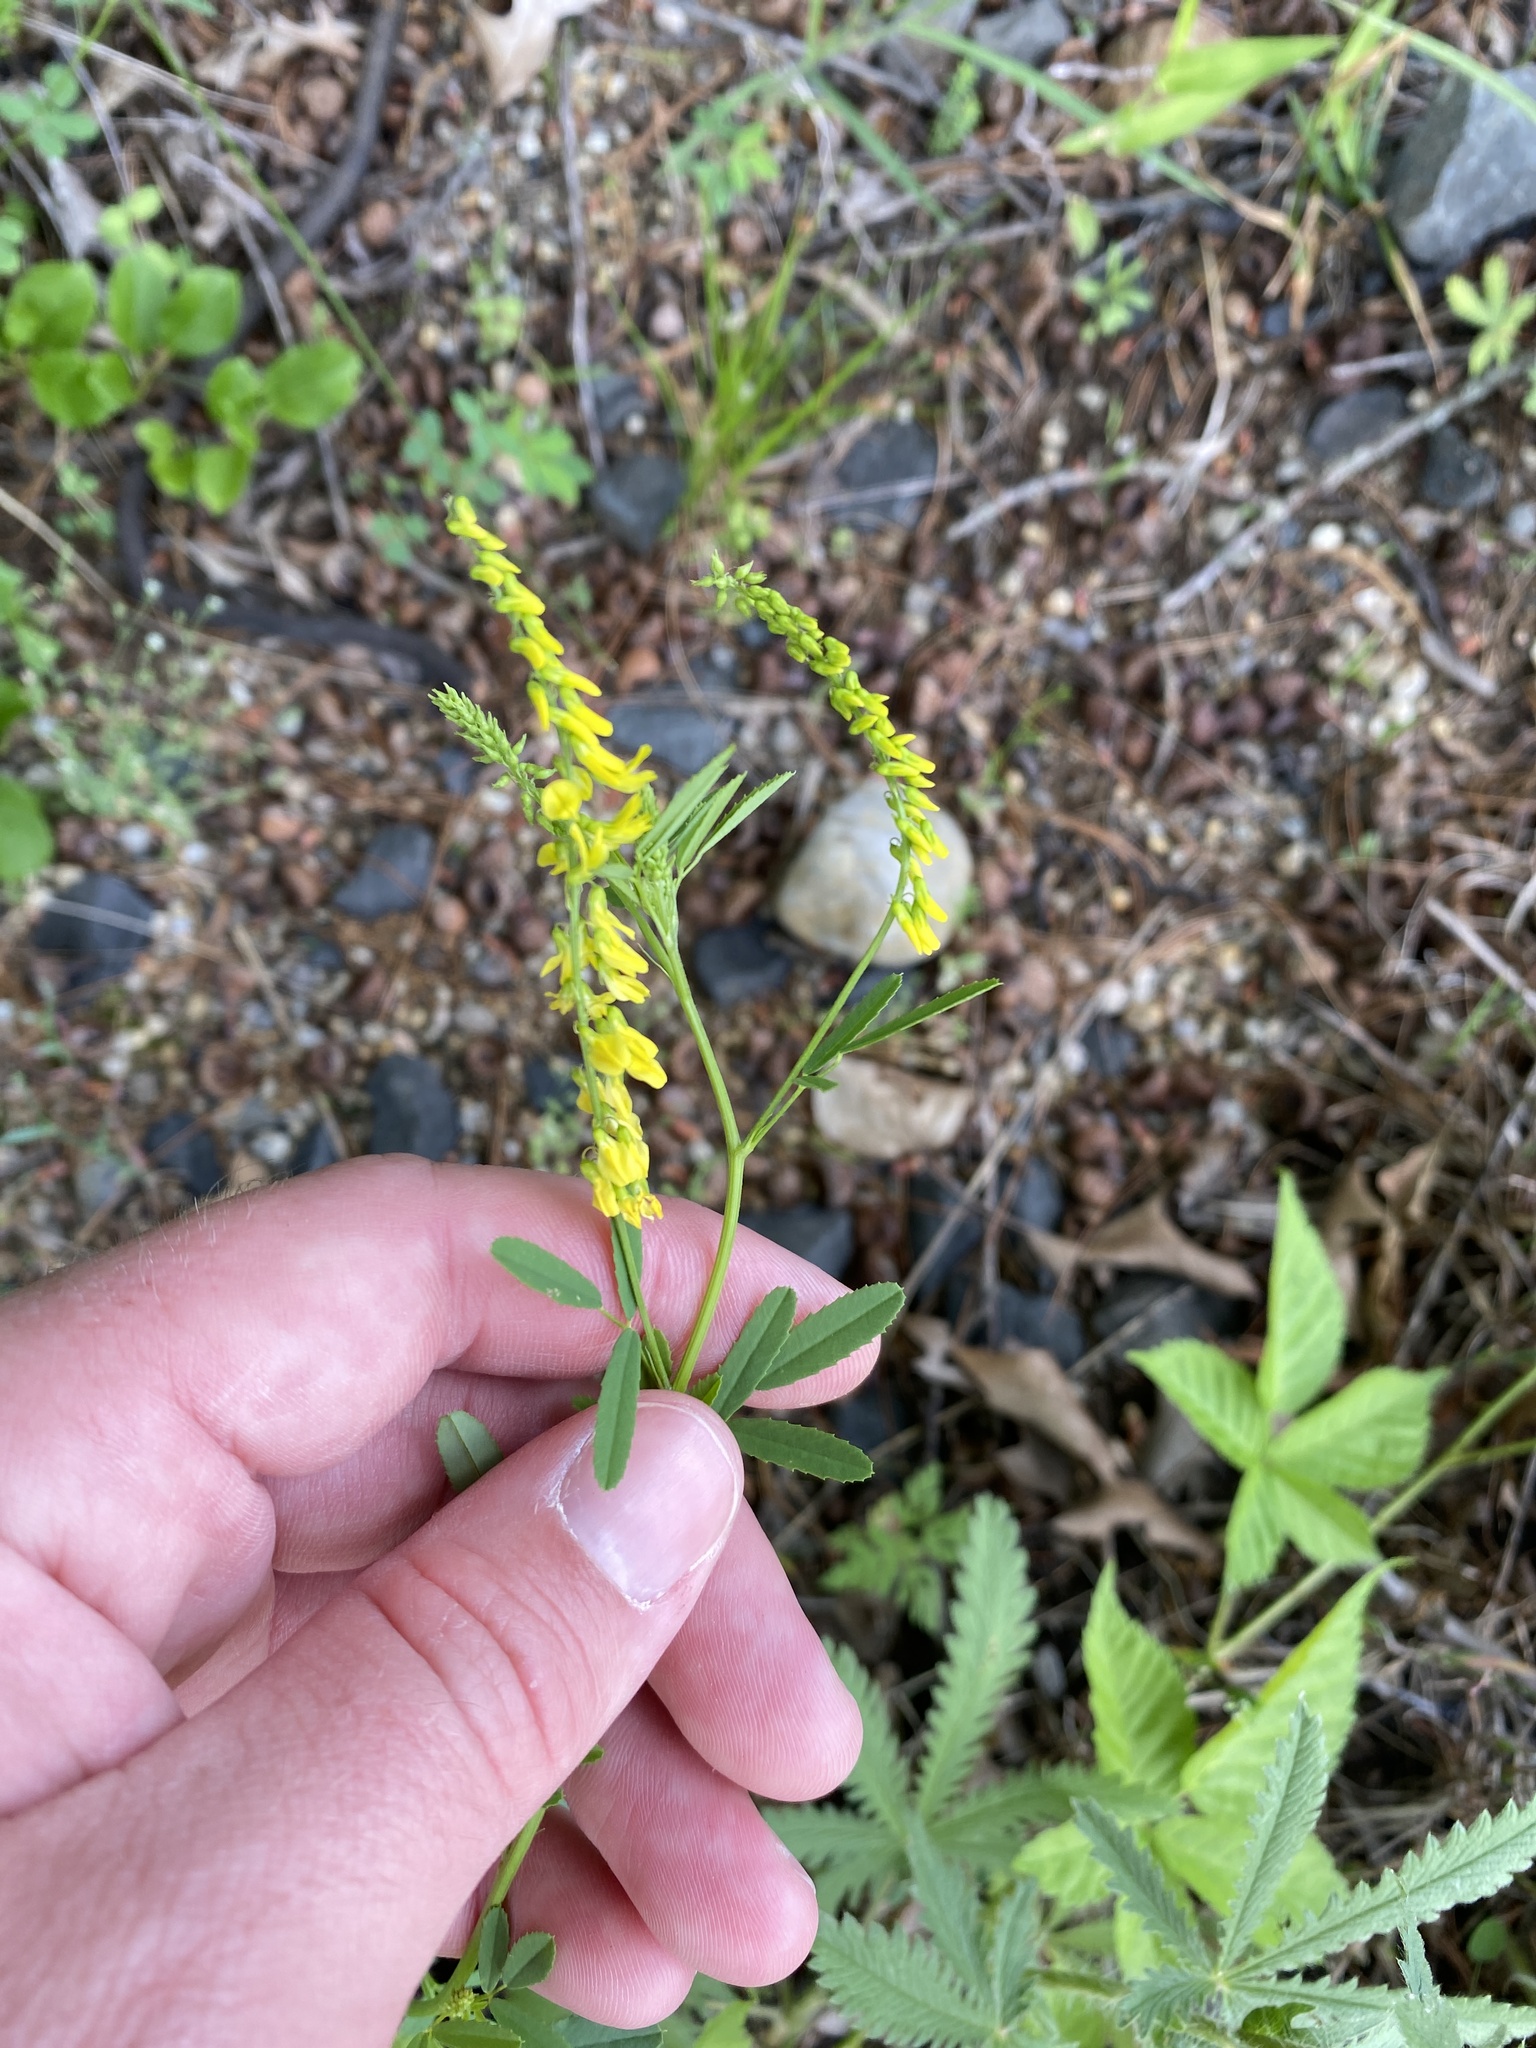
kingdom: Plantae
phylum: Tracheophyta
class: Magnoliopsida
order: Fabales
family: Fabaceae
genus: Melilotus
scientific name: Melilotus officinalis
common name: Sweetclover
